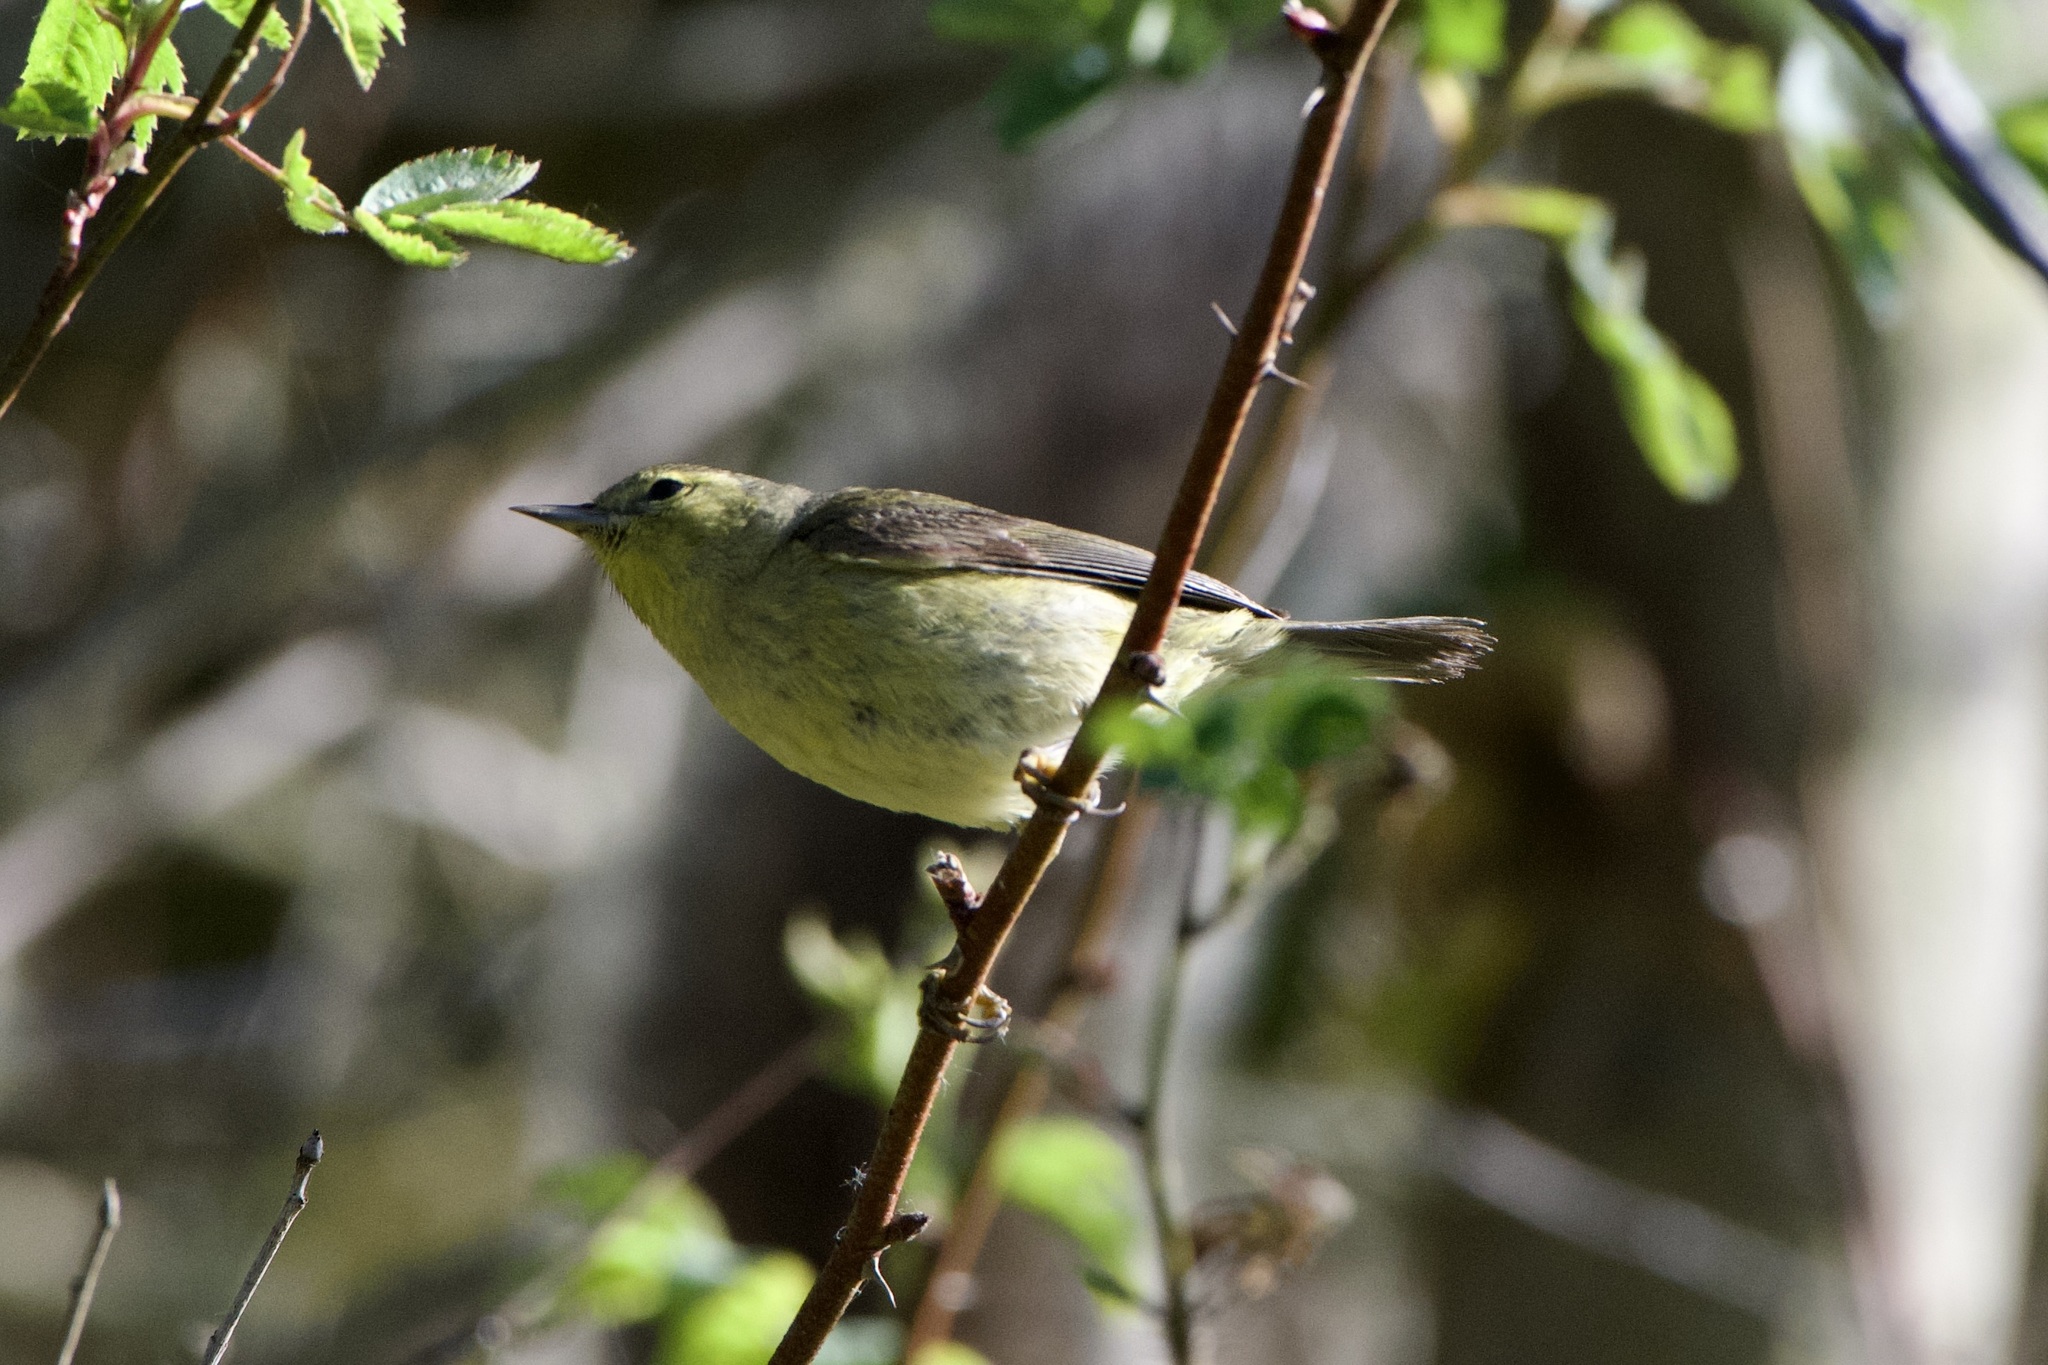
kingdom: Animalia
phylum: Chordata
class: Aves
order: Passeriformes
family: Parulidae
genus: Leiothlypis
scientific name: Leiothlypis celata
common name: Orange-crowned warbler
